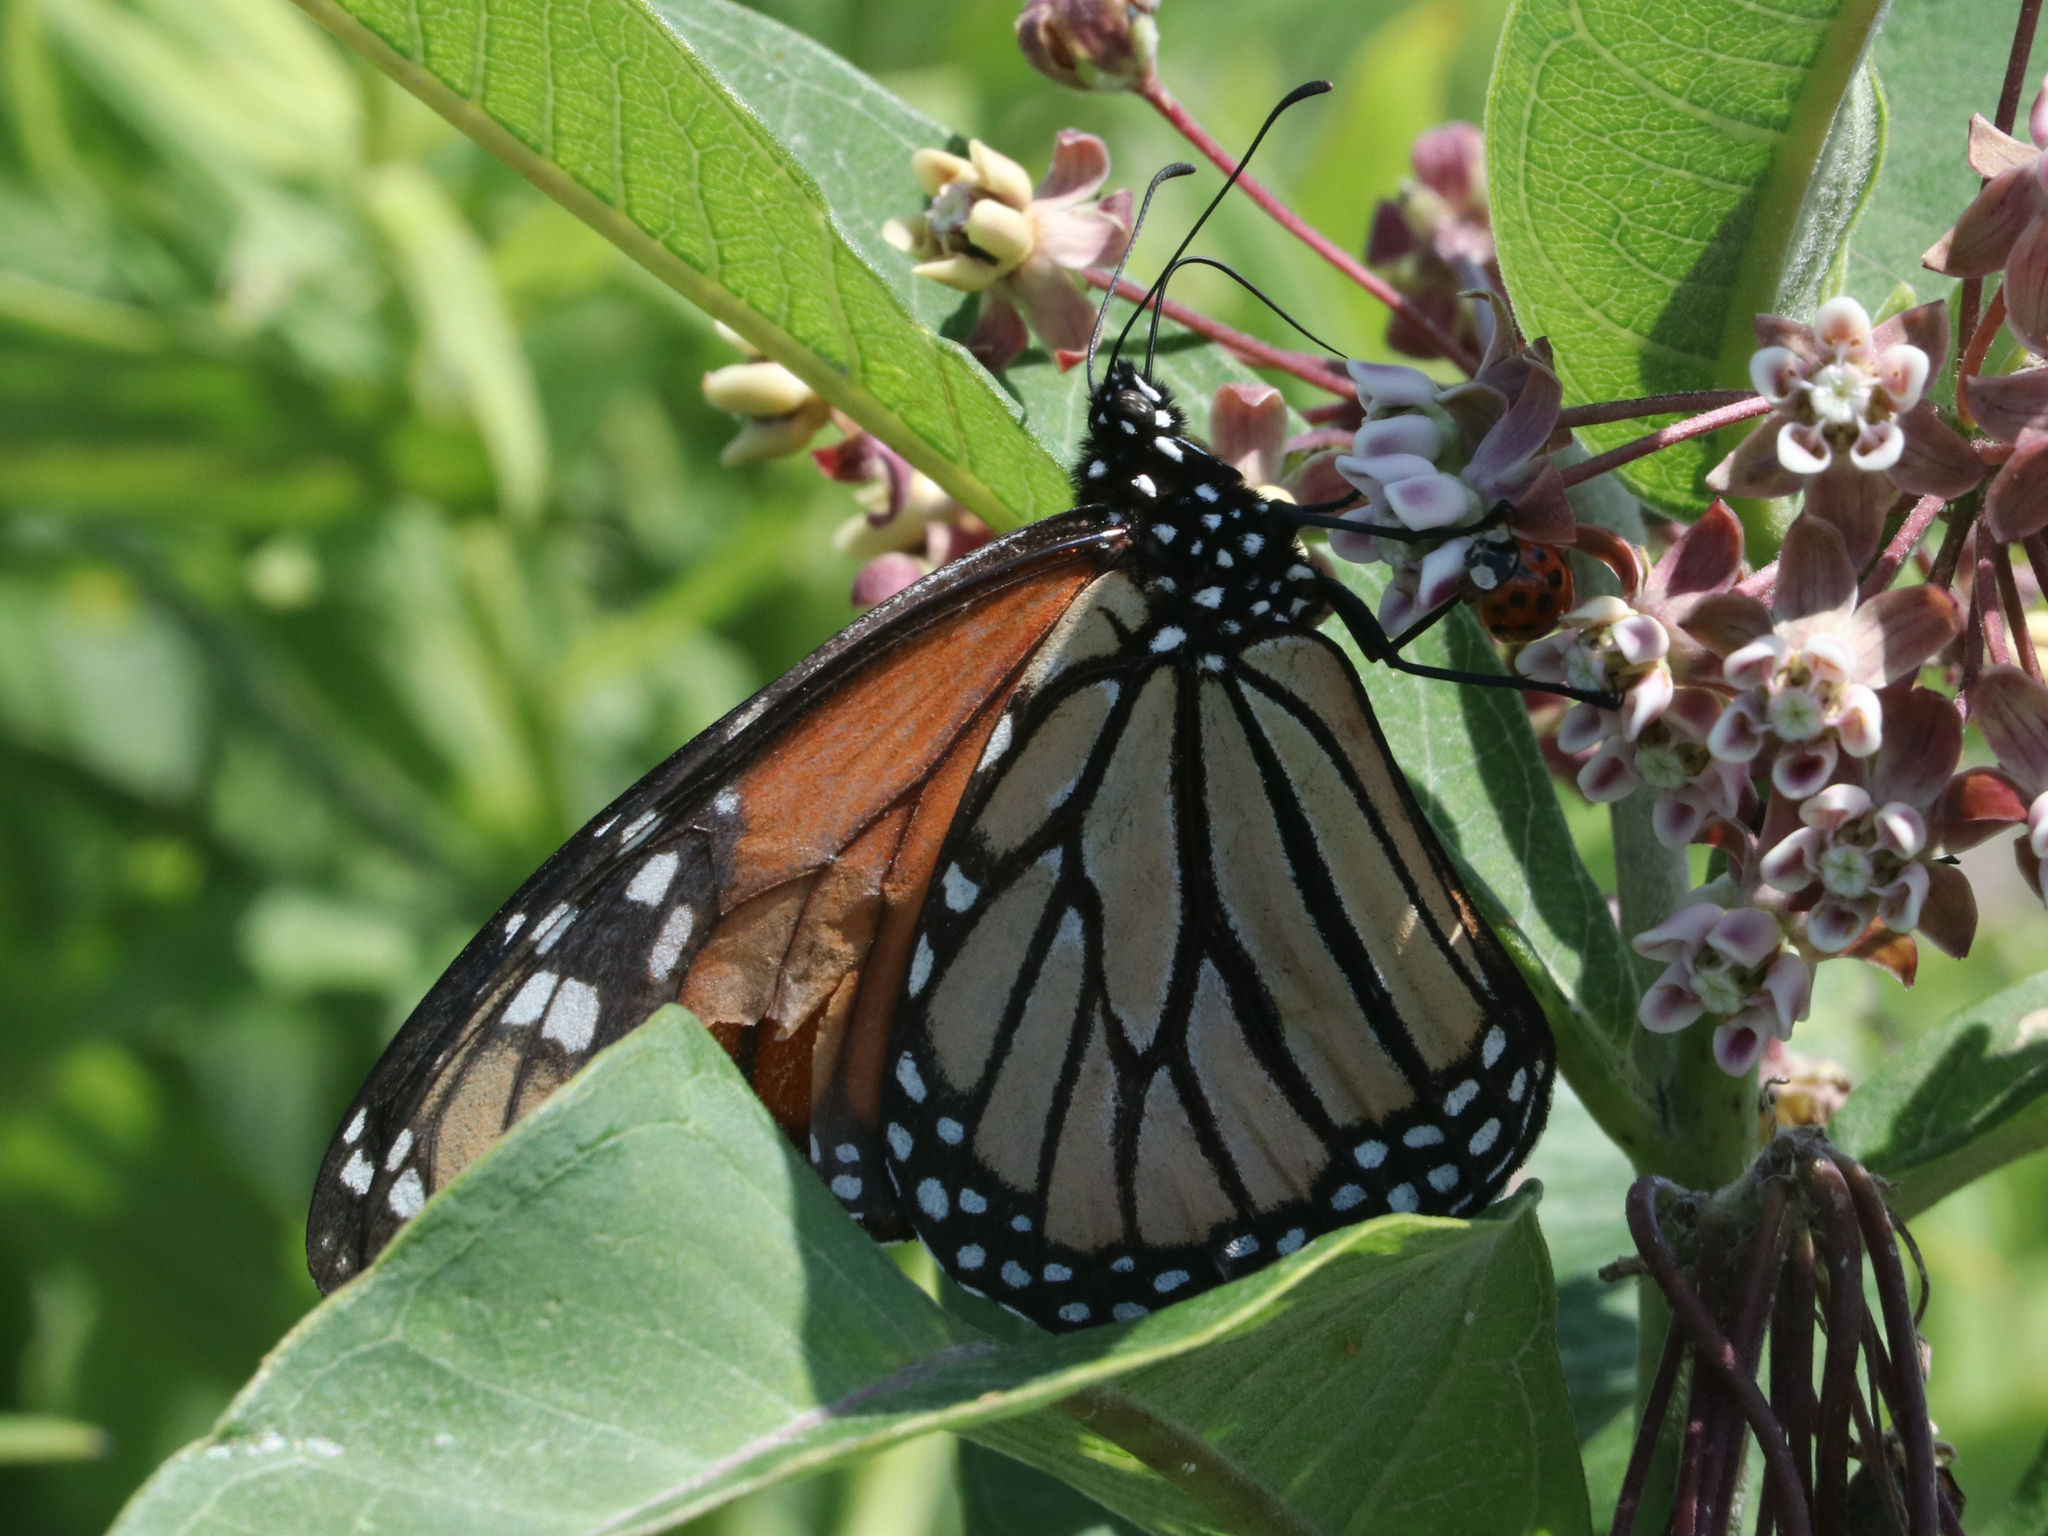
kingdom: Animalia
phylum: Arthropoda
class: Insecta
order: Lepidoptera
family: Nymphalidae
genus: Danaus
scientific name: Danaus plexippus
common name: Monarch
